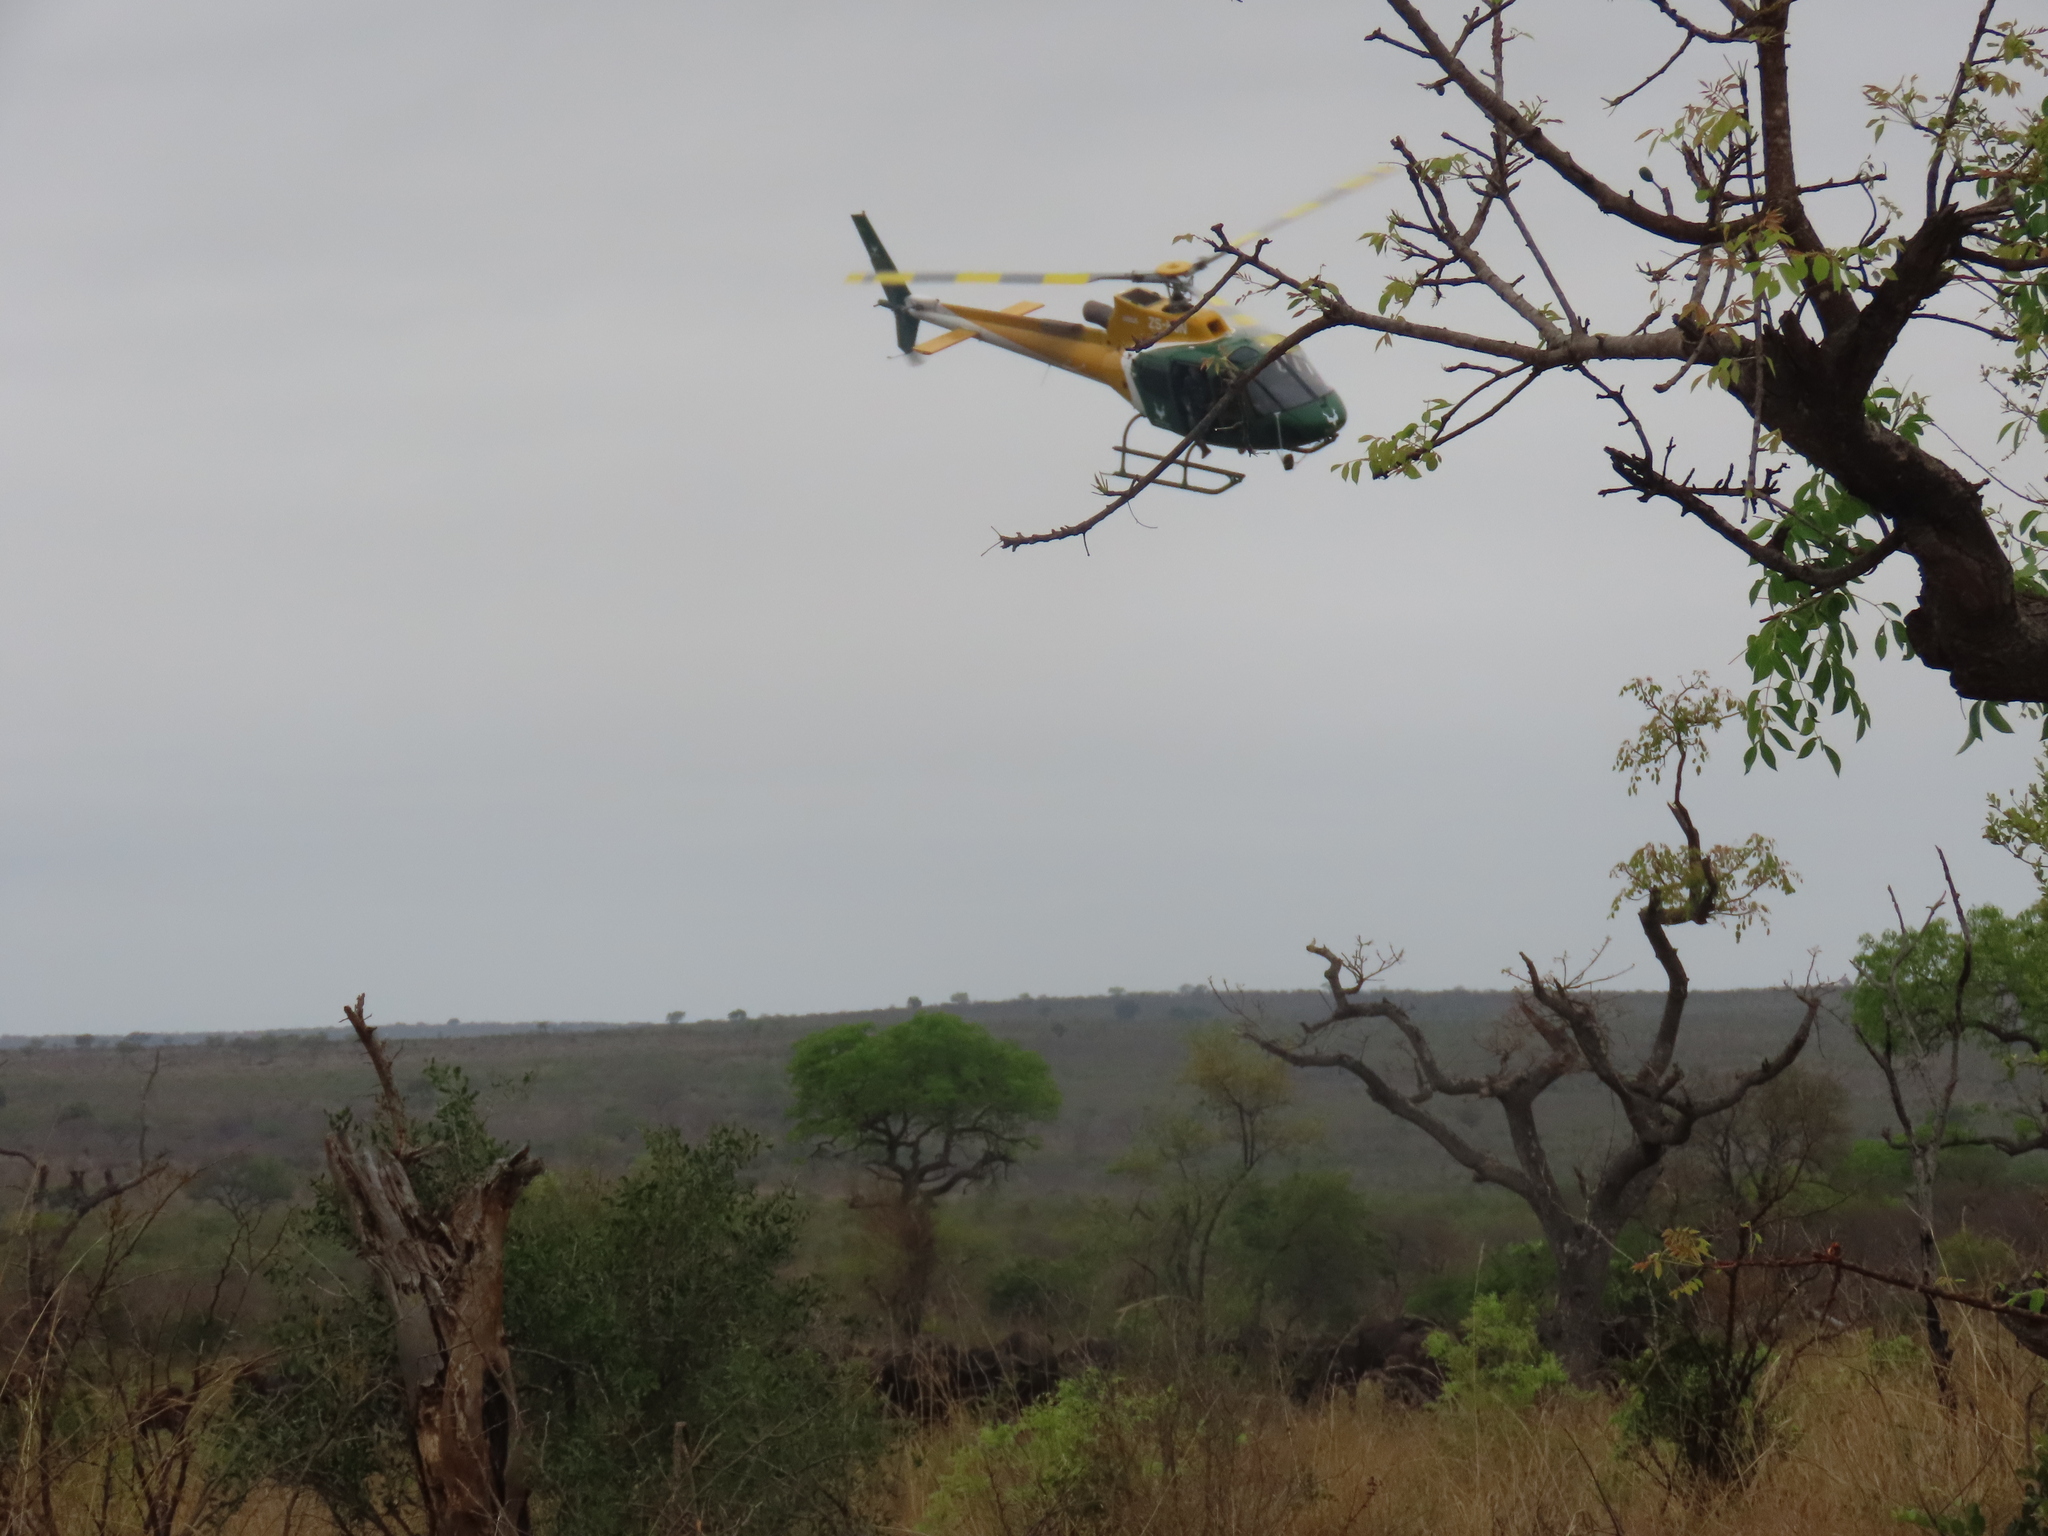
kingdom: Animalia
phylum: Chordata
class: Mammalia
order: Artiodactyla
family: Bovidae
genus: Syncerus
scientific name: Syncerus caffer
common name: African buffalo
